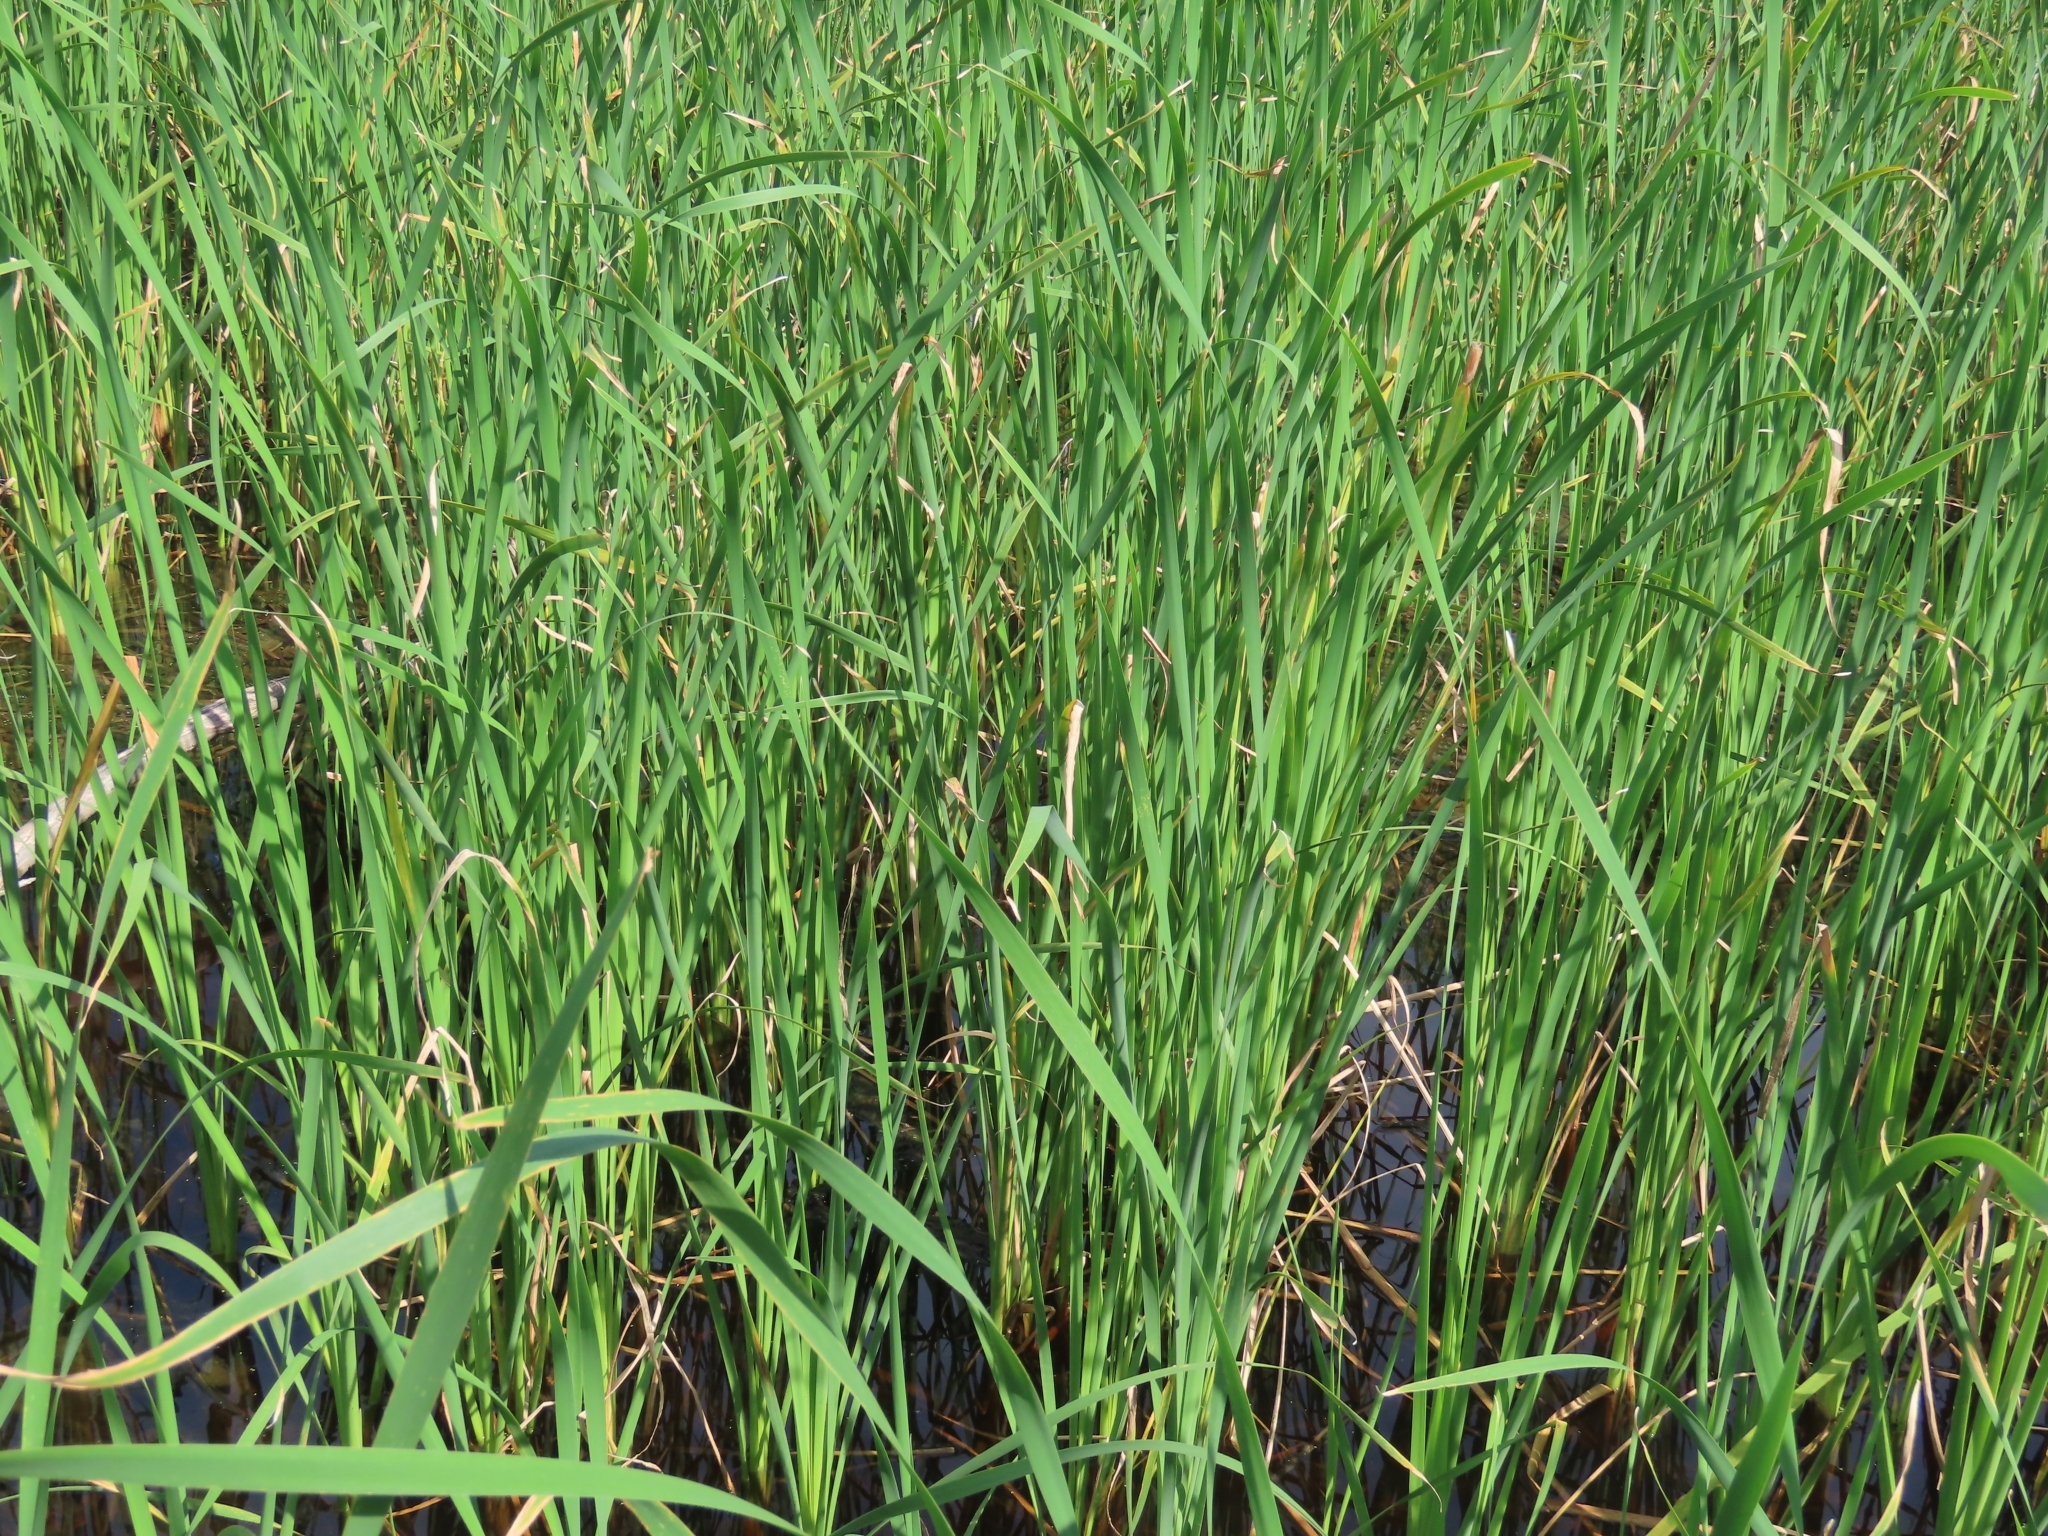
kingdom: Plantae
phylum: Tracheophyta
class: Liliopsida
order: Poales
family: Typhaceae
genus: Typha
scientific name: Typha domingensis
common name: Southern cattail
